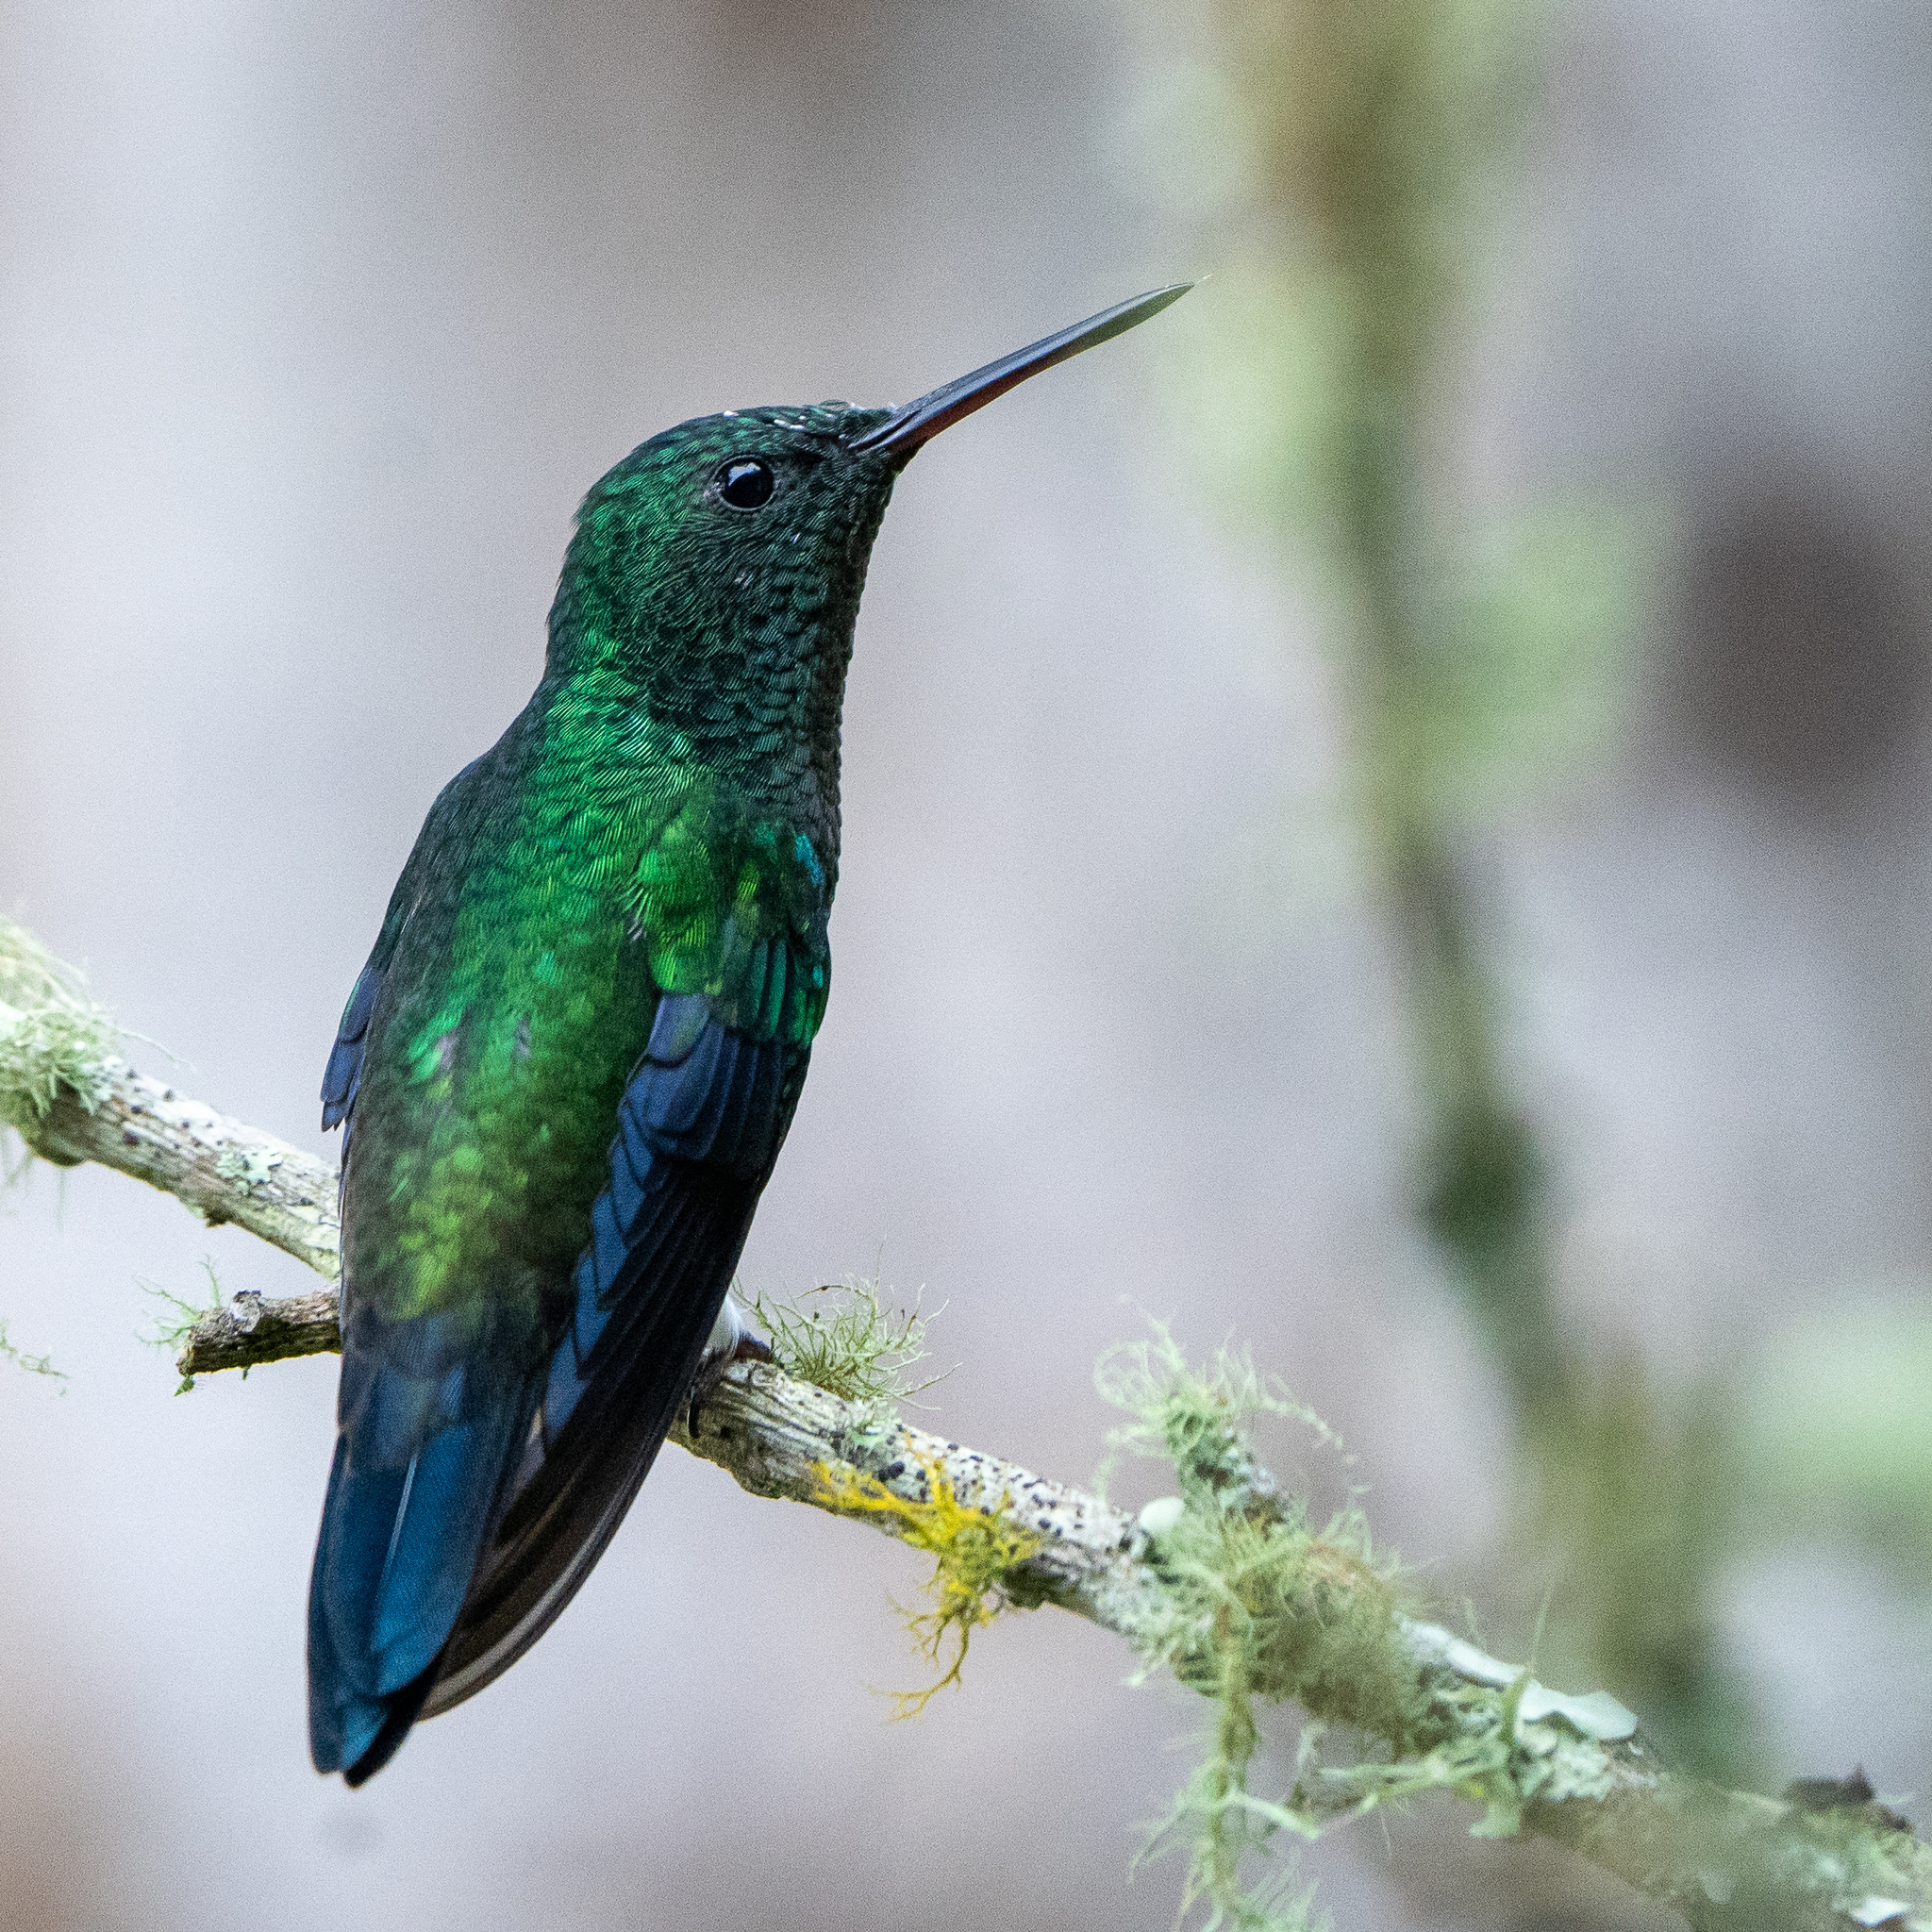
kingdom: Animalia
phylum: Chordata
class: Aves
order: Apodiformes
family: Trochilidae
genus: Saucerottia
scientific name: Saucerottia saucerottei
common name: Steely-vented hummingbird
